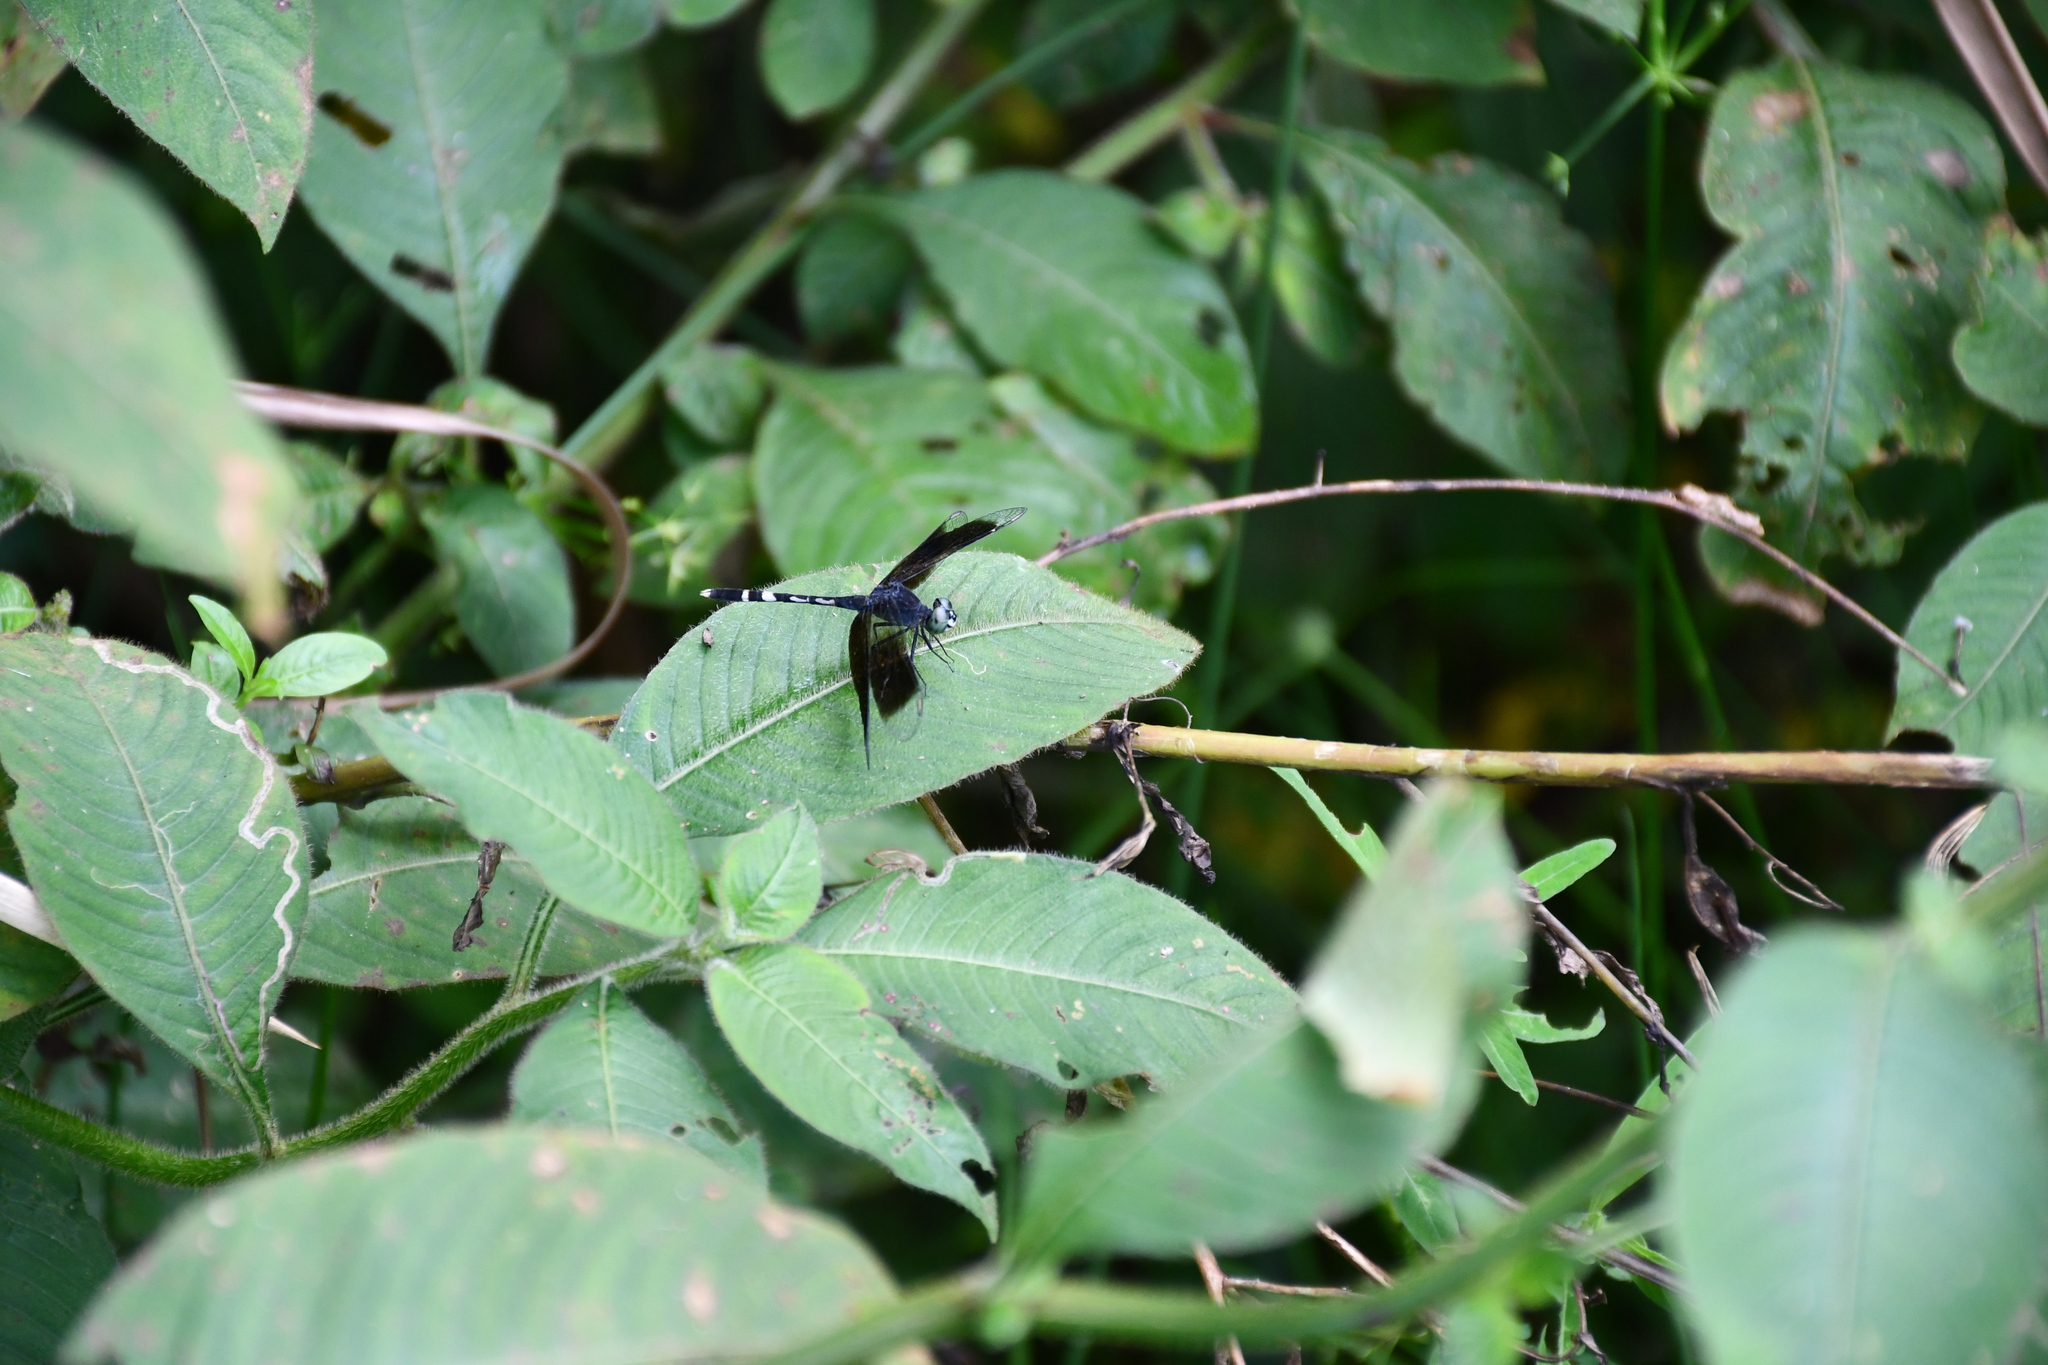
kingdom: Animalia
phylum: Arthropoda
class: Insecta
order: Odonata
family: Libellulidae
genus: Erythrodiplax
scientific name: Erythrodiplax attenuata
